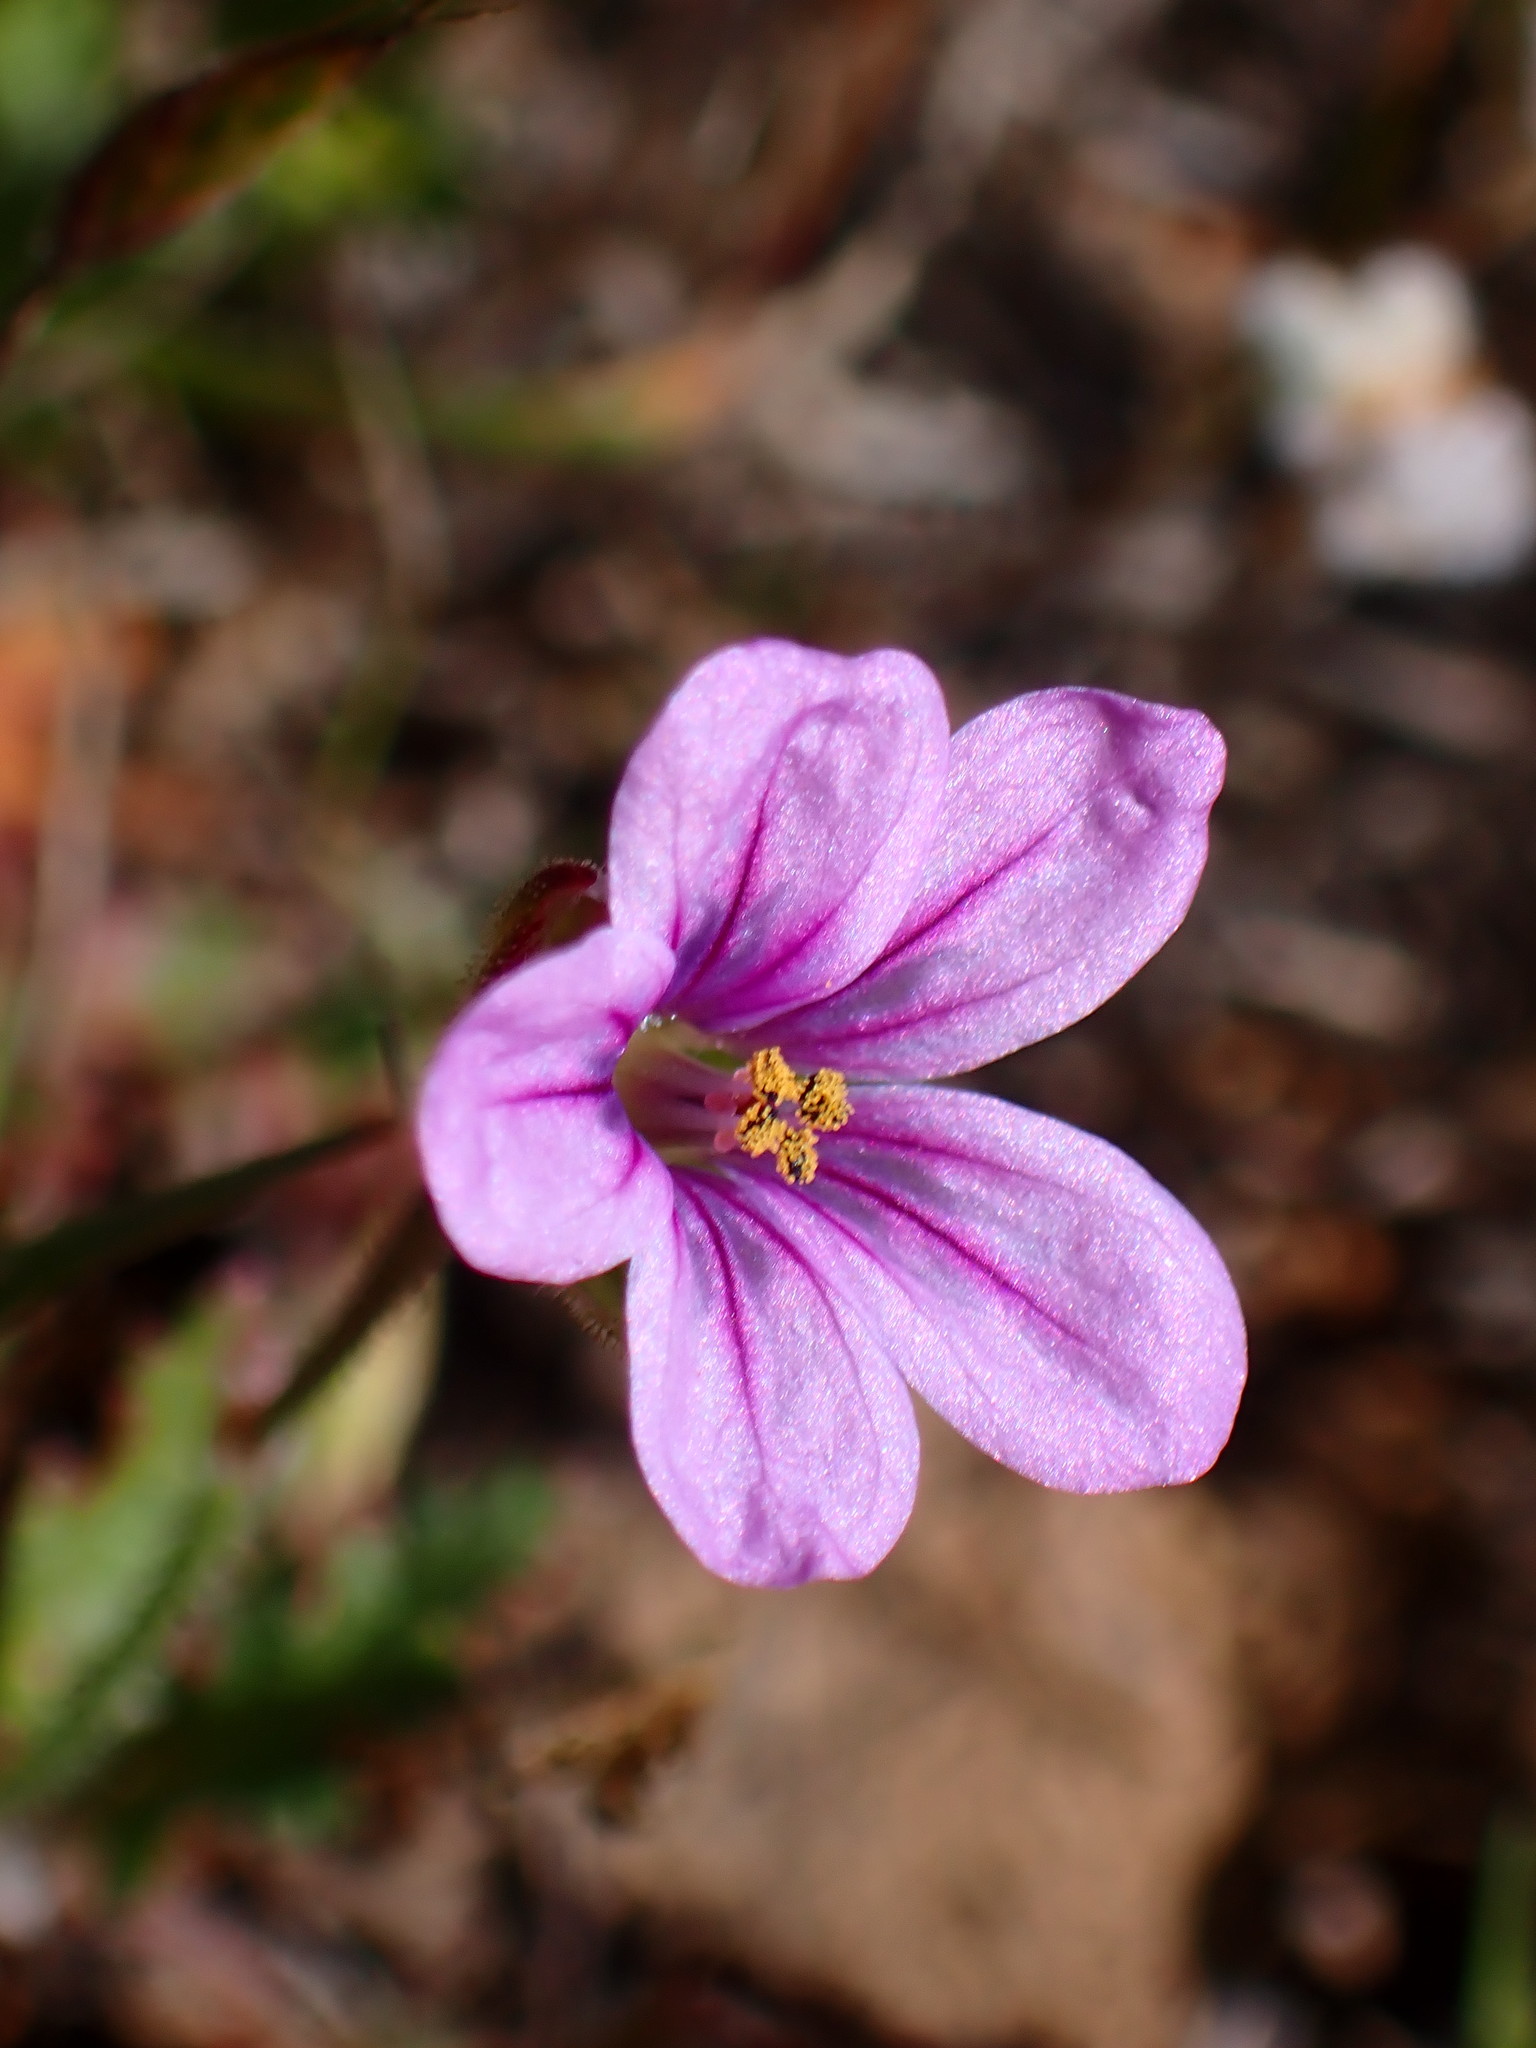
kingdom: Plantae
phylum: Tracheophyta
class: Magnoliopsida
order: Geraniales
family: Geraniaceae
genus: Erodium
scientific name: Erodium botrys
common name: Mediterranean stork's-bill
